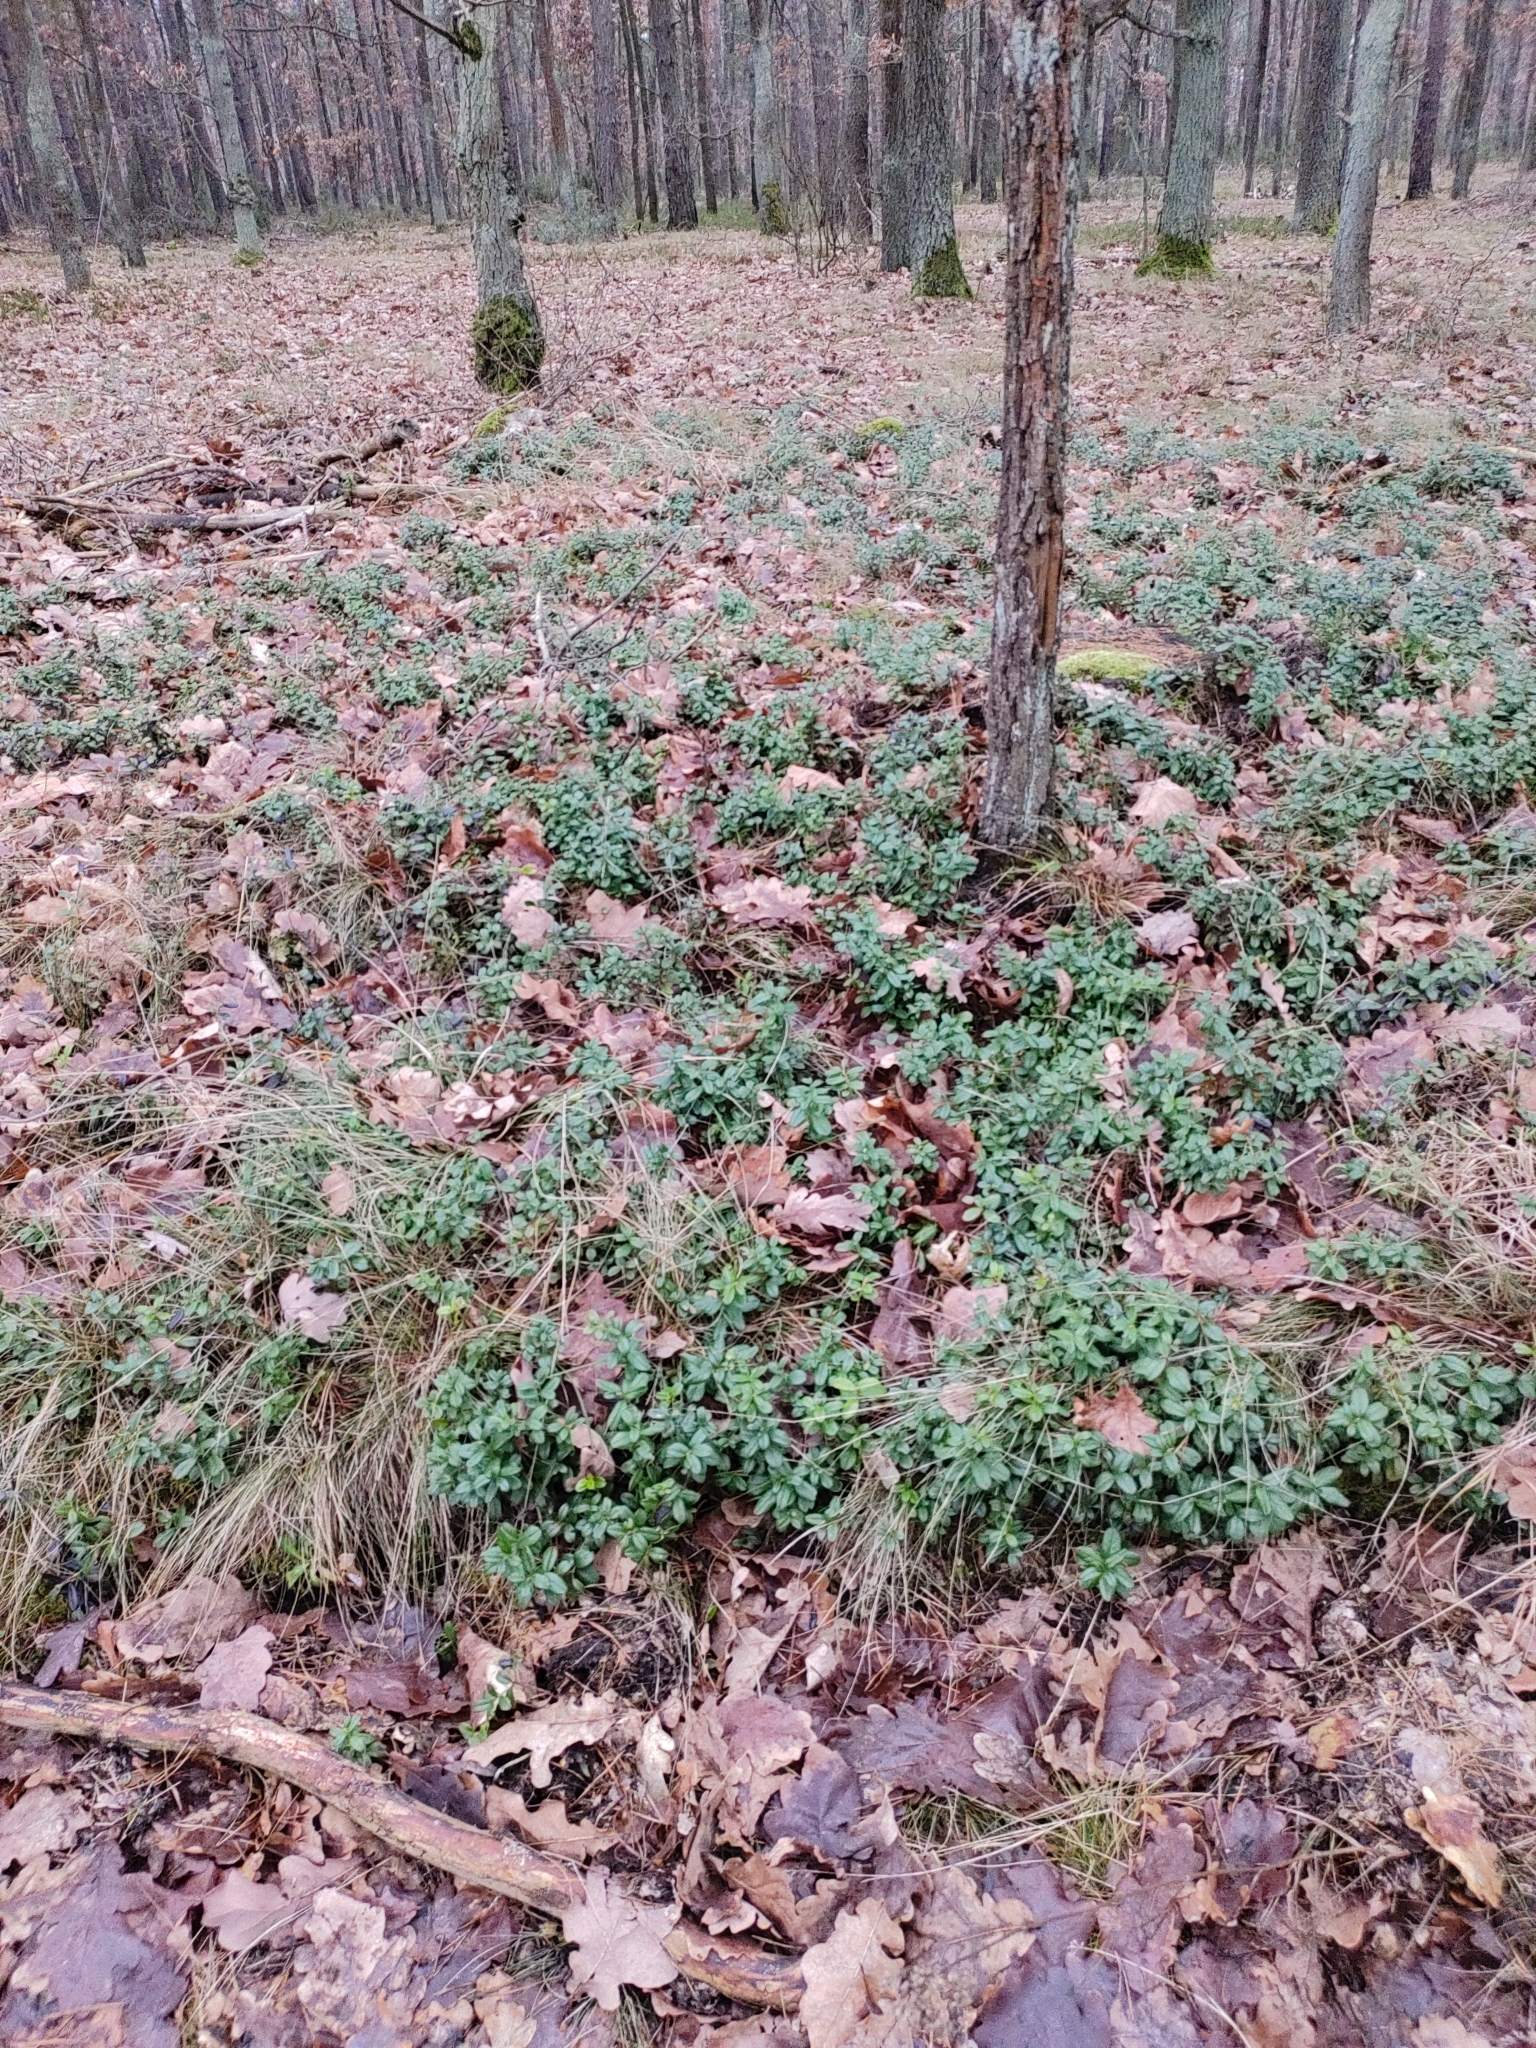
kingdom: Plantae
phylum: Tracheophyta
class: Magnoliopsida
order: Ericales
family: Ericaceae
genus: Vaccinium
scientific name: Vaccinium vitis-idaea
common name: Cowberry
